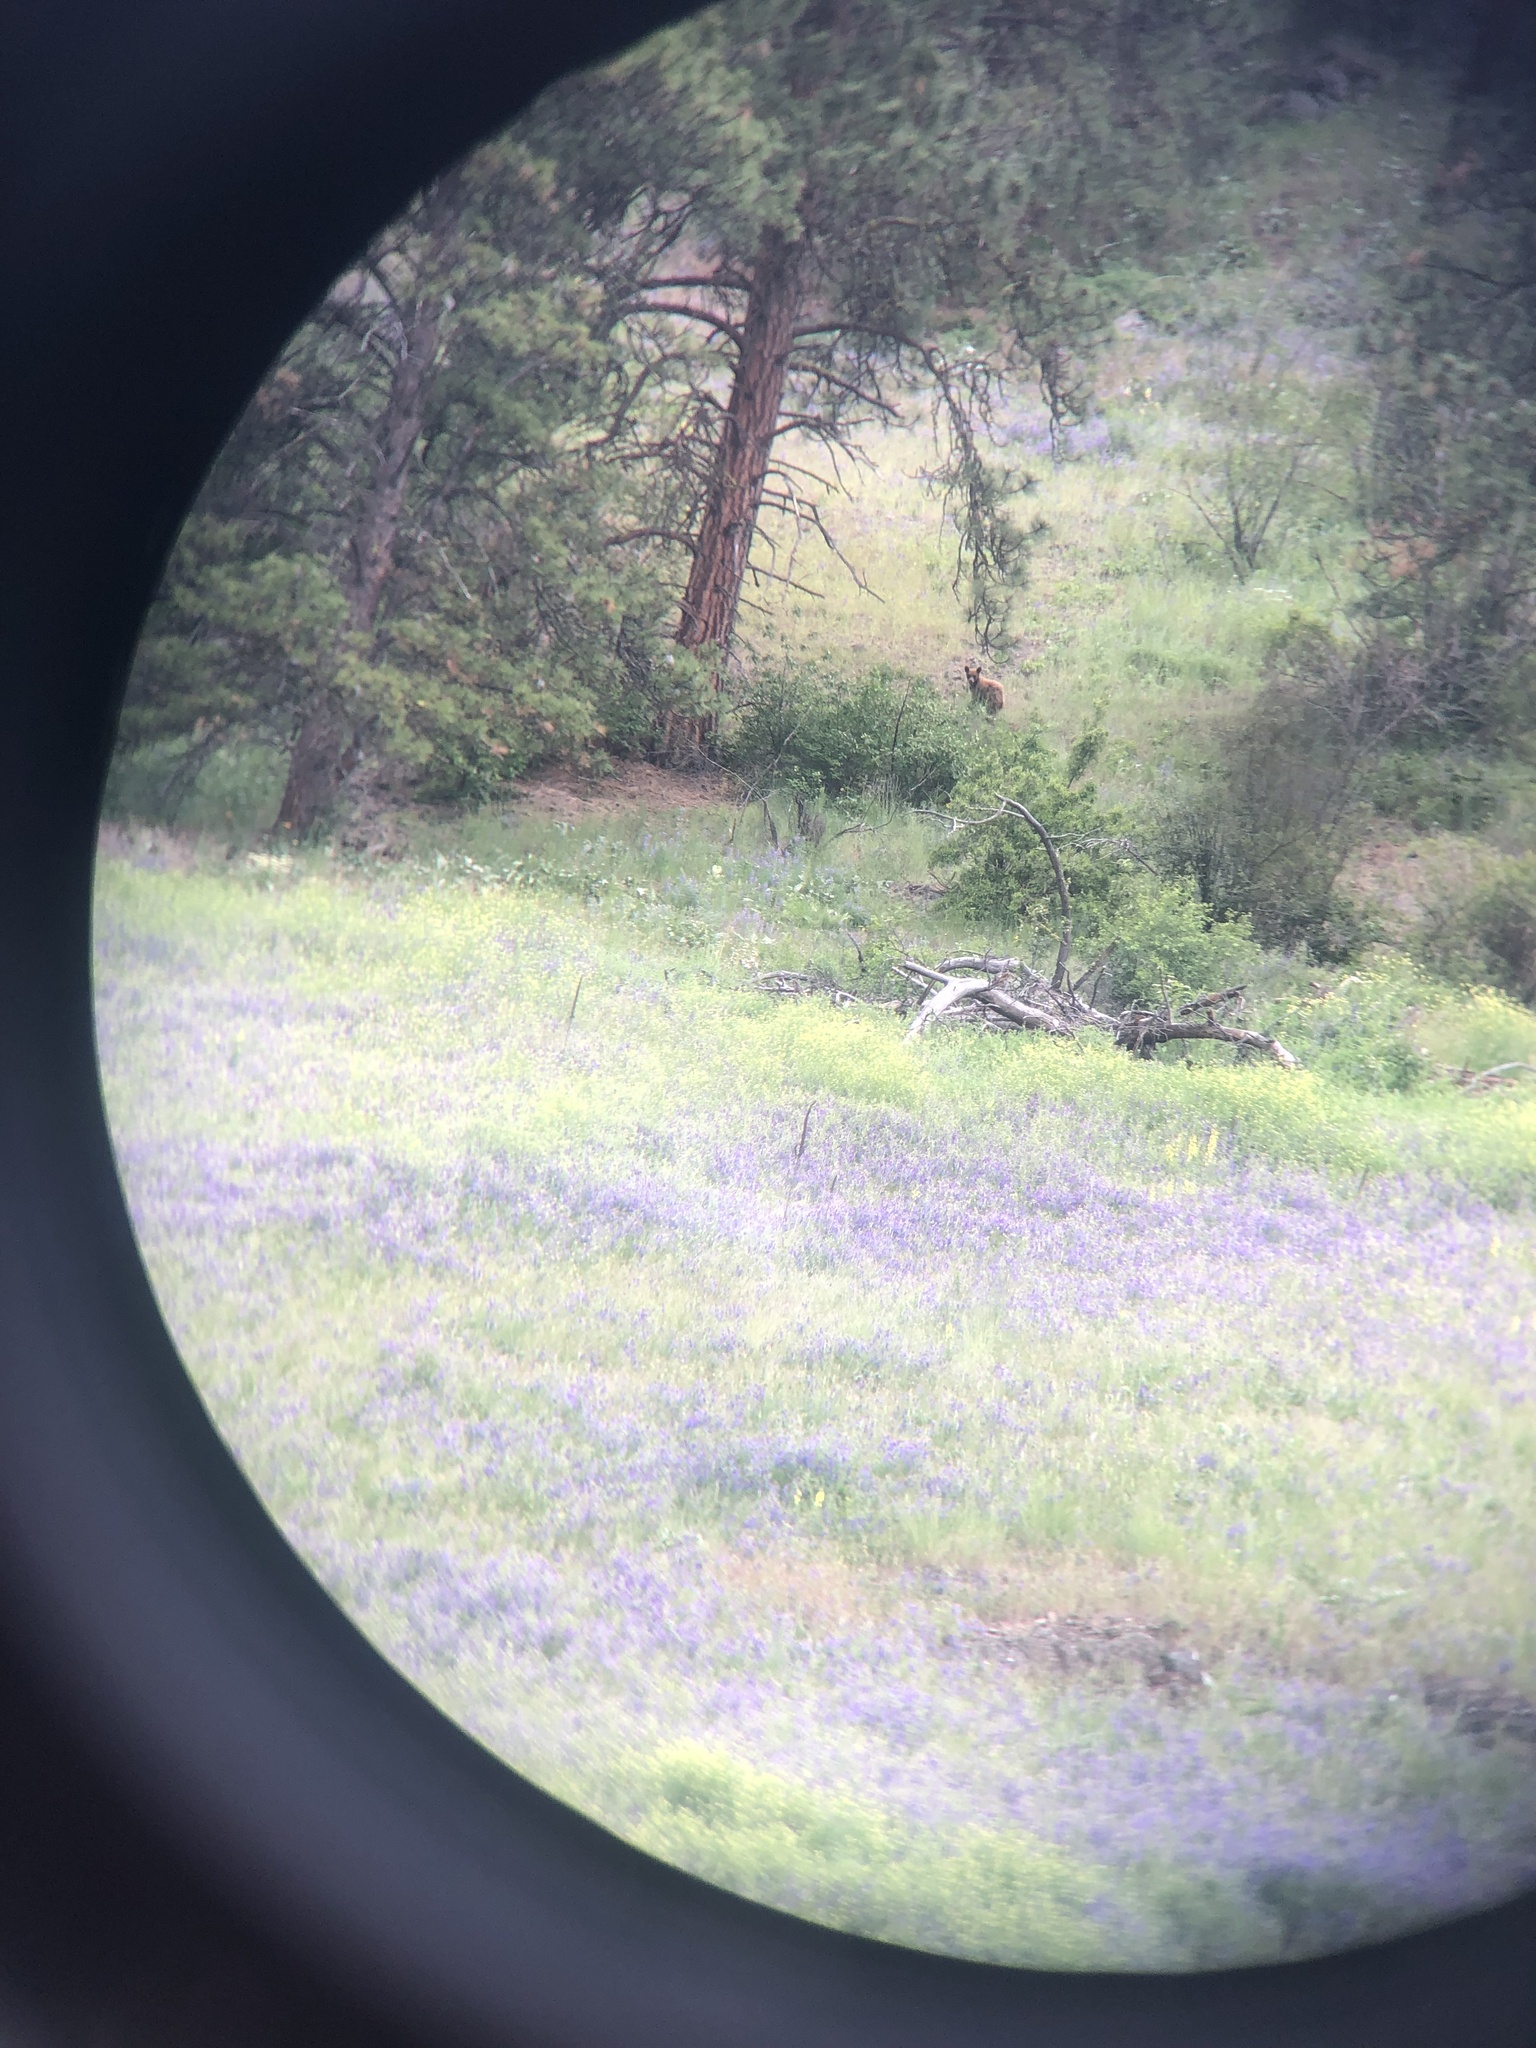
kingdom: Animalia
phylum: Chordata
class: Mammalia
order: Carnivora
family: Ursidae
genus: Ursus
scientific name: Ursus americanus
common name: American black bear
